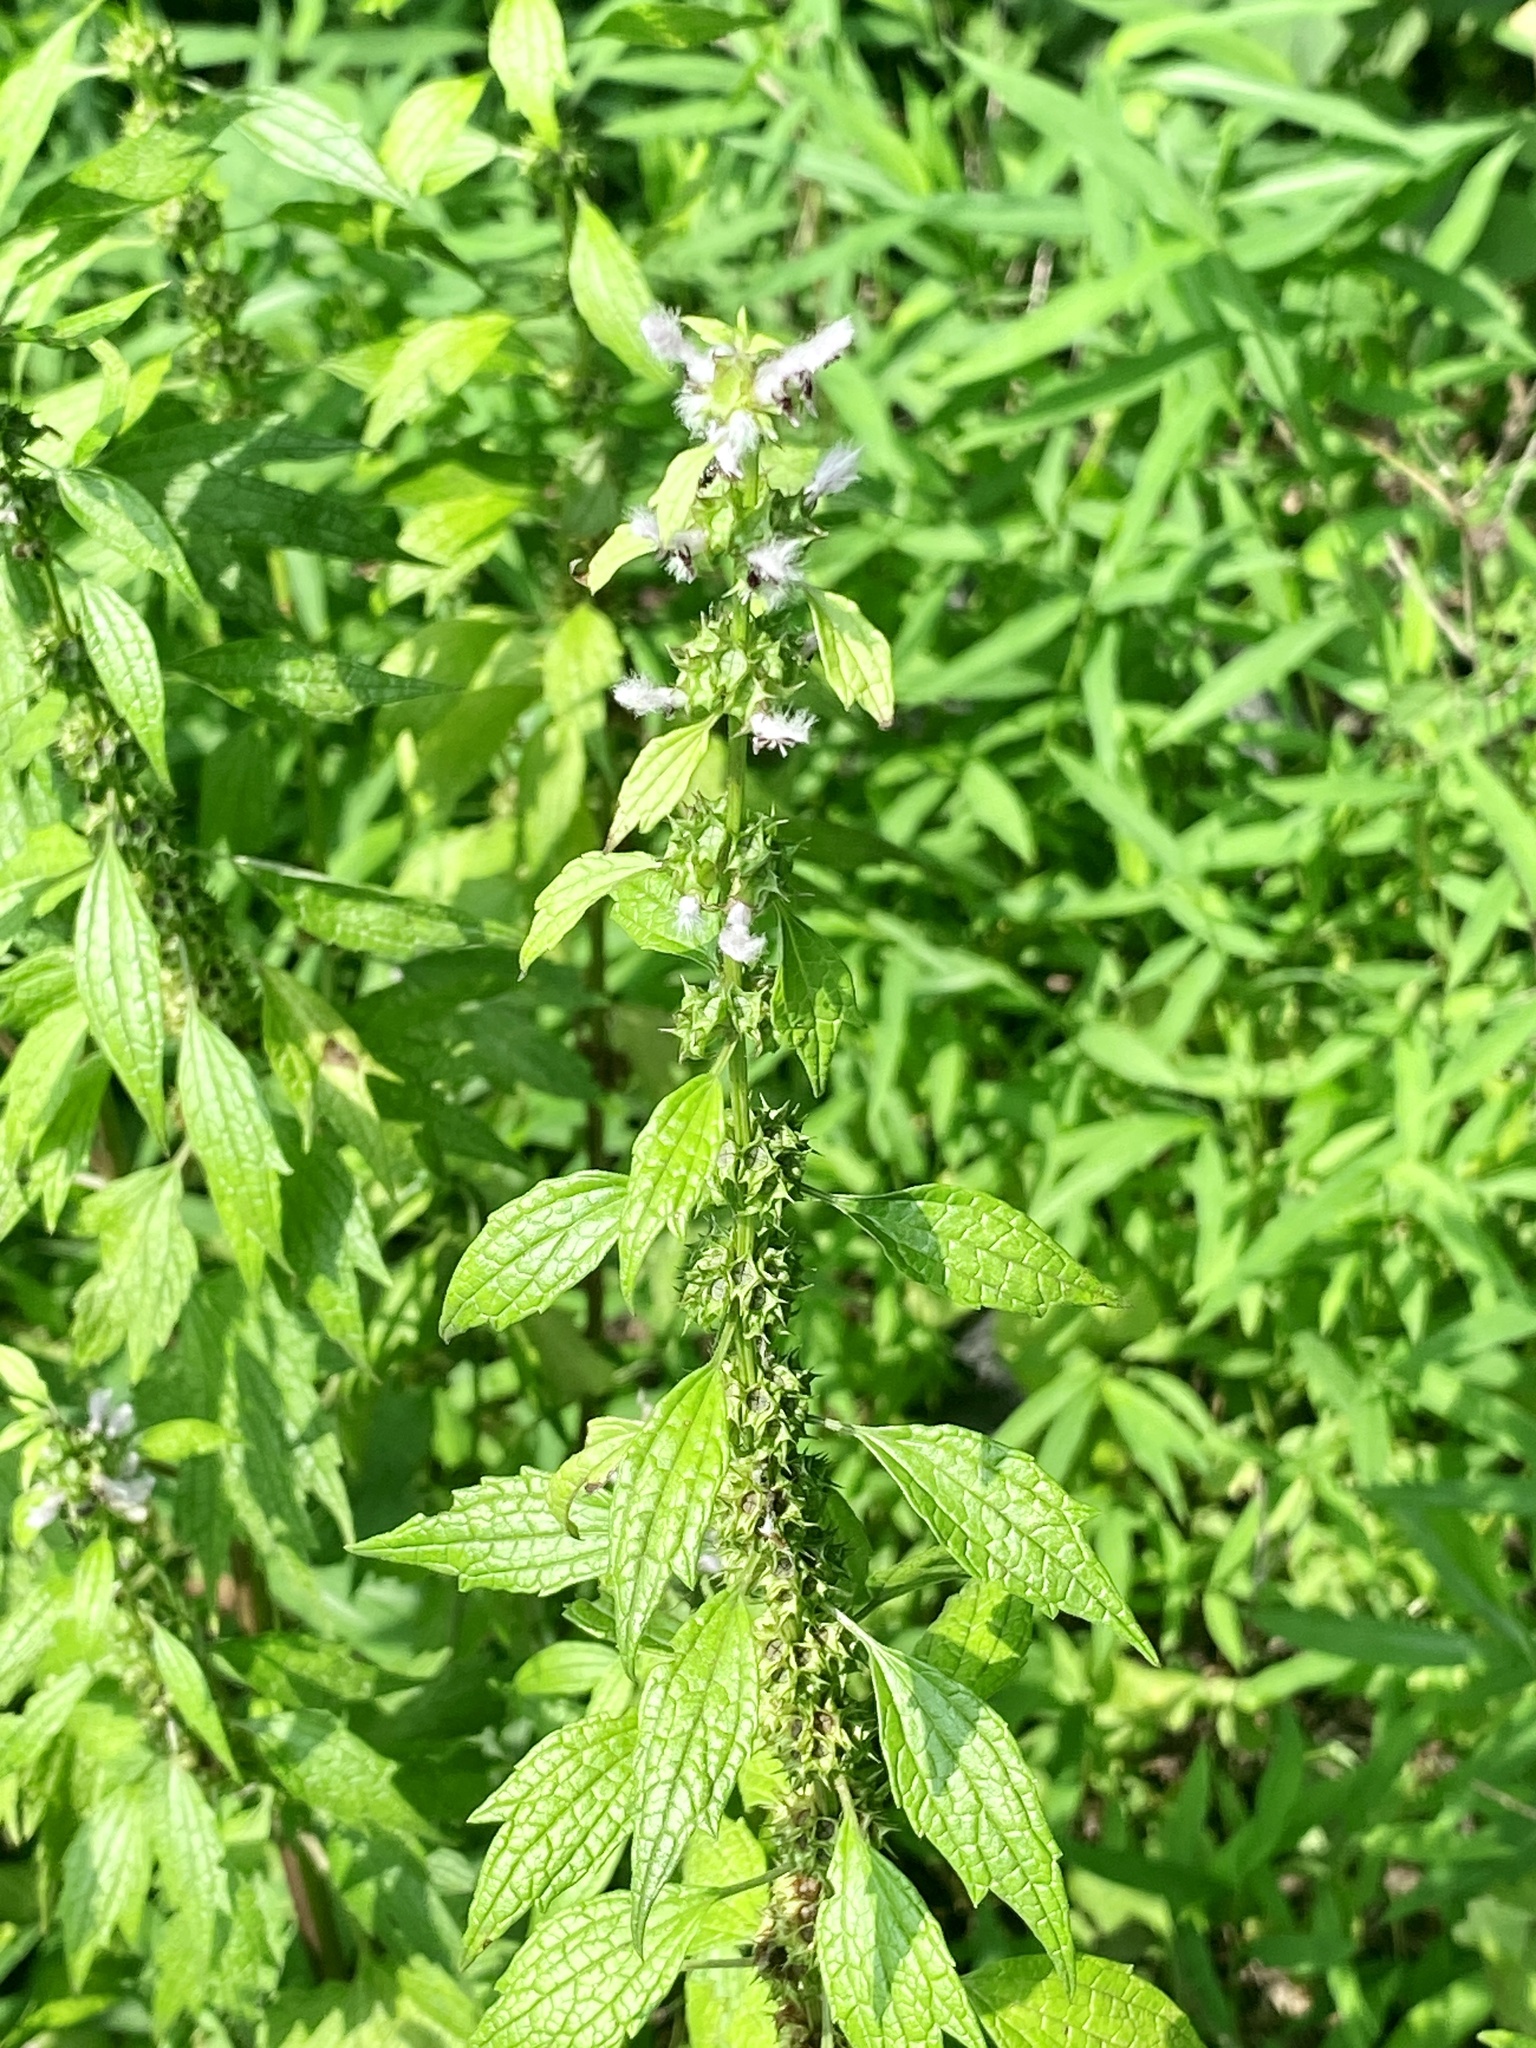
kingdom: Plantae
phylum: Tracheophyta
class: Magnoliopsida
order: Lamiales
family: Lamiaceae
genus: Leonurus
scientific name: Leonurus cardiaca
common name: Motherwort
